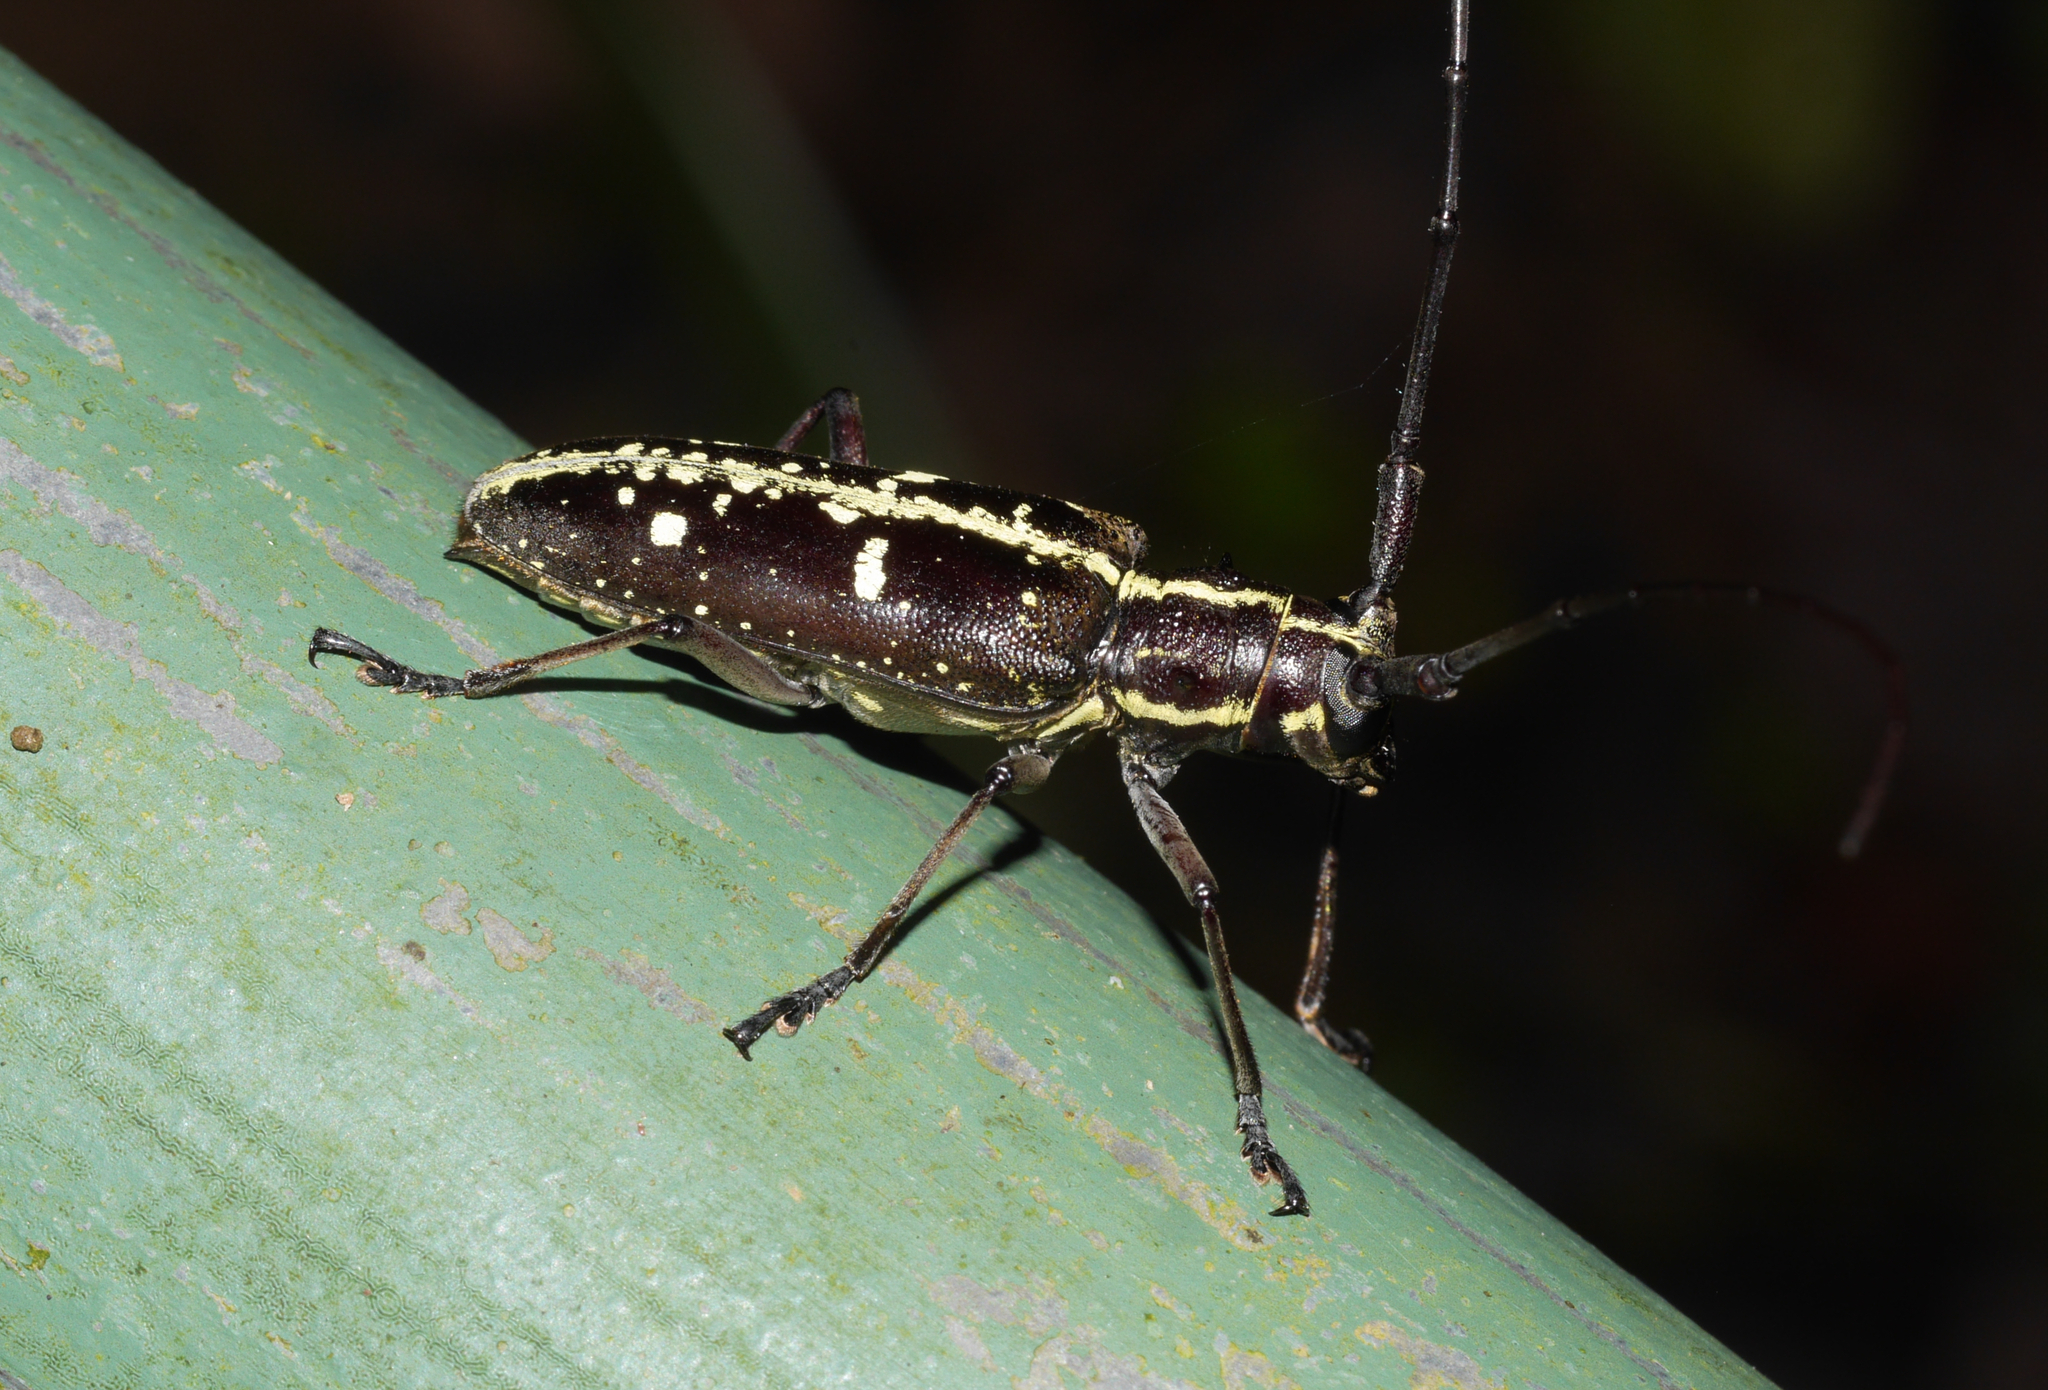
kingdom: Animalia
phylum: Arthropoda
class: Insecta
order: Coleoptera
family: Cerambycidae
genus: Taeniotes
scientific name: Taeniotes dentatus
